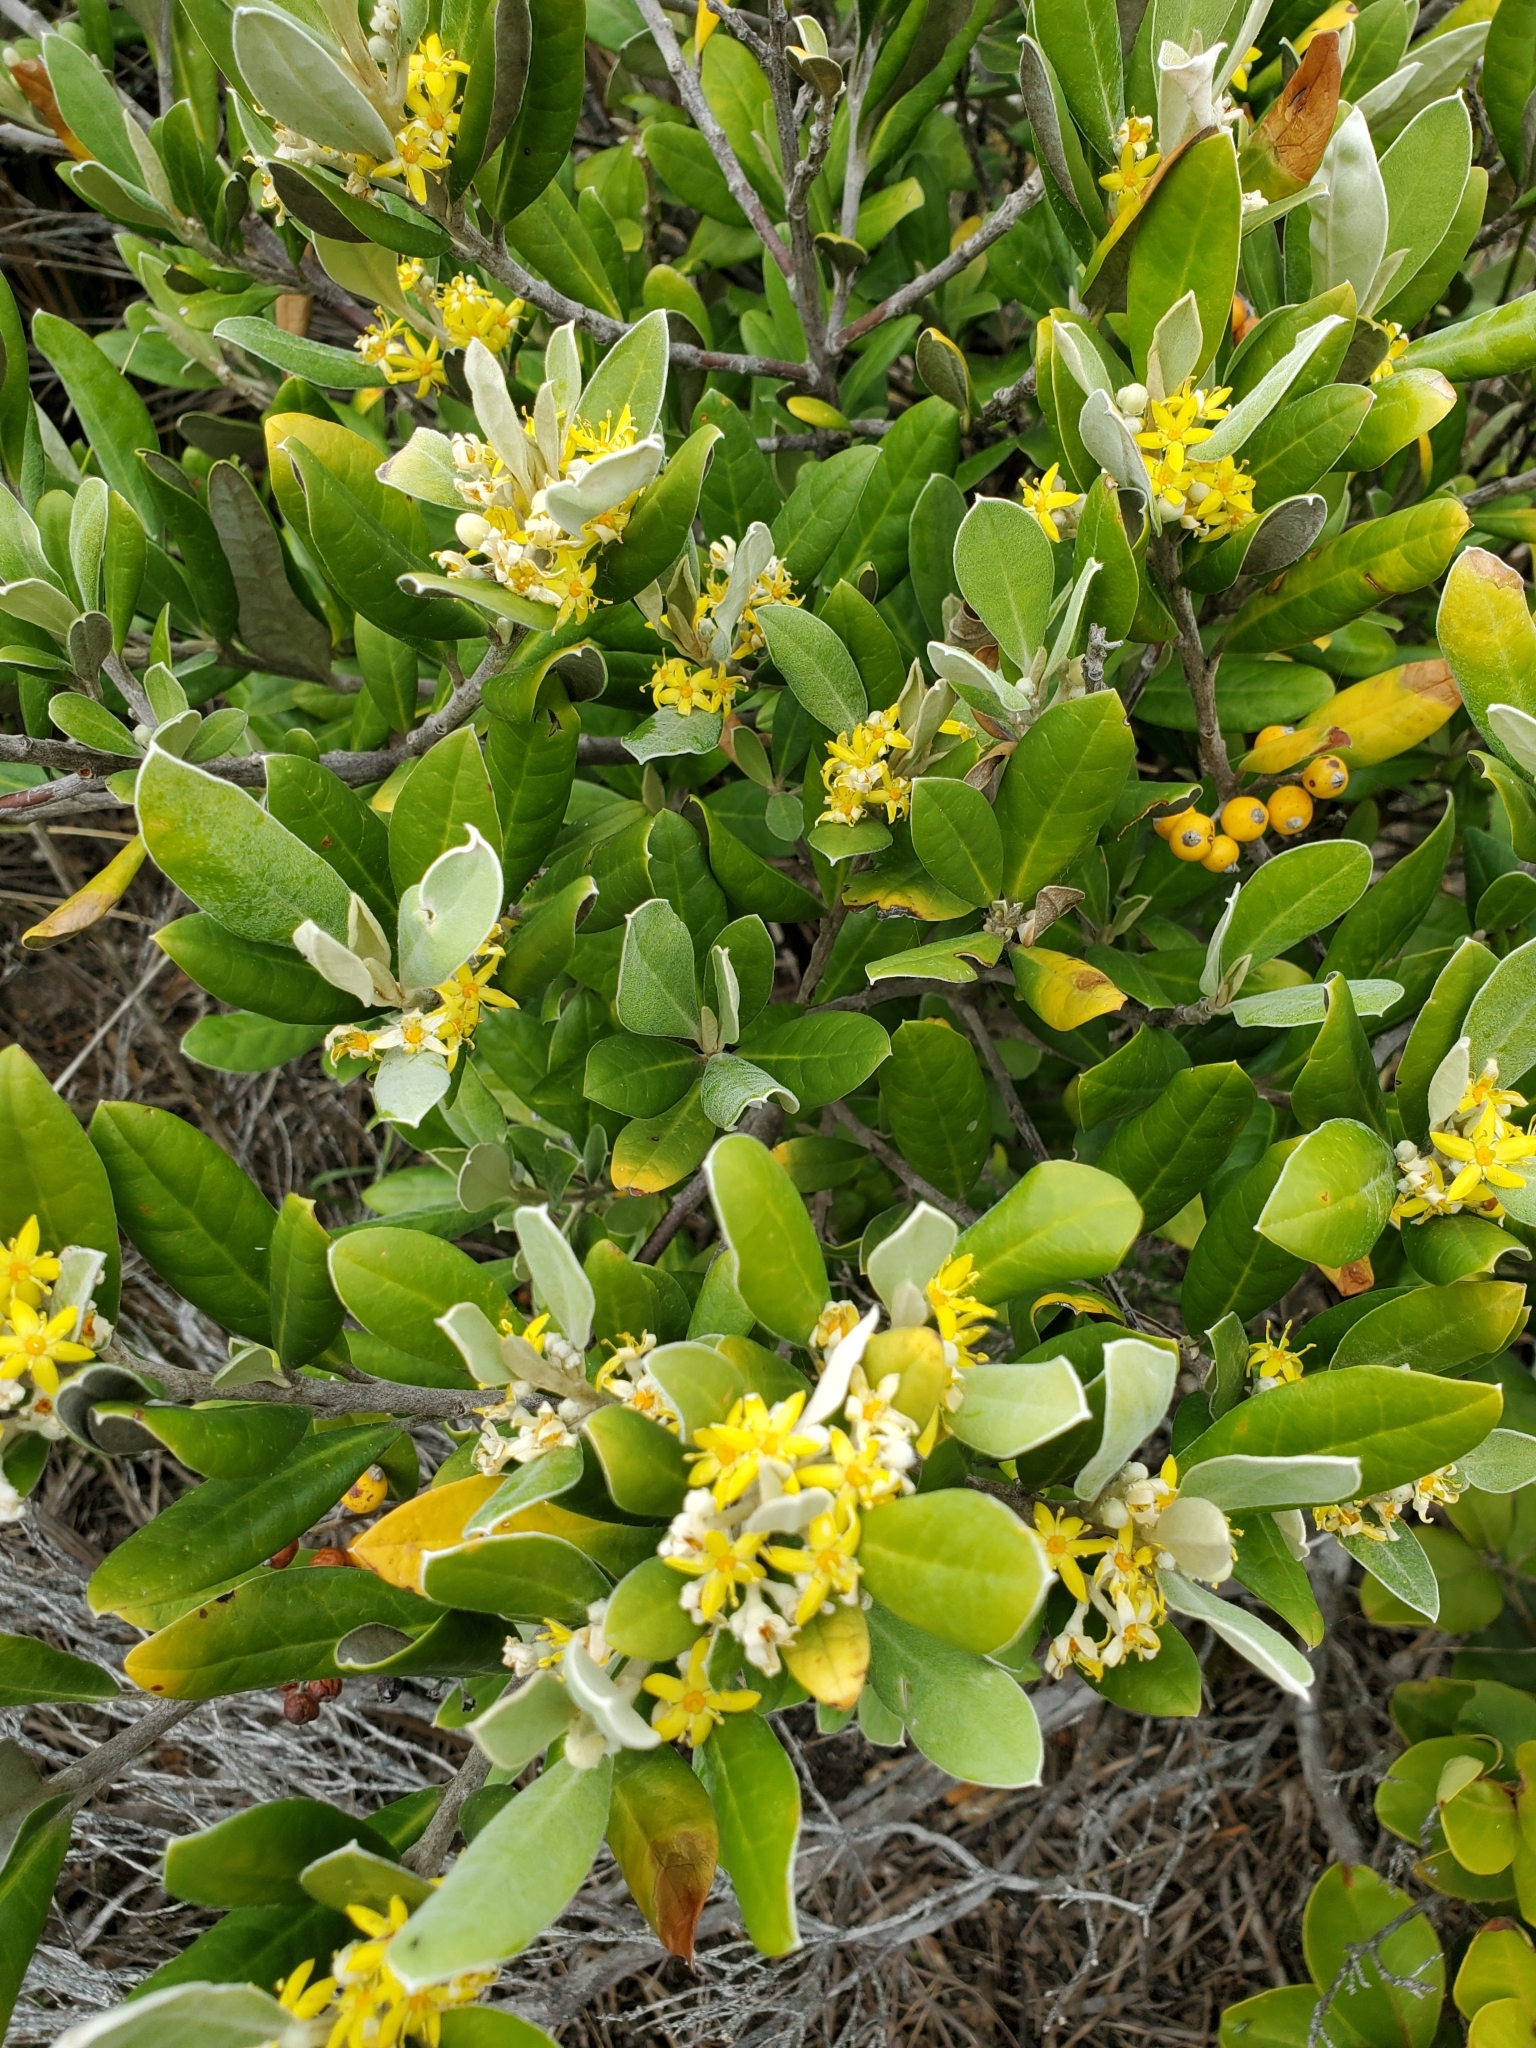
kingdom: Plantae
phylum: Tracheophyta
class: Magnoliopsida
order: Asterales
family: Argophyllaceae
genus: Corokia
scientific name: Corokia macrocarpa
